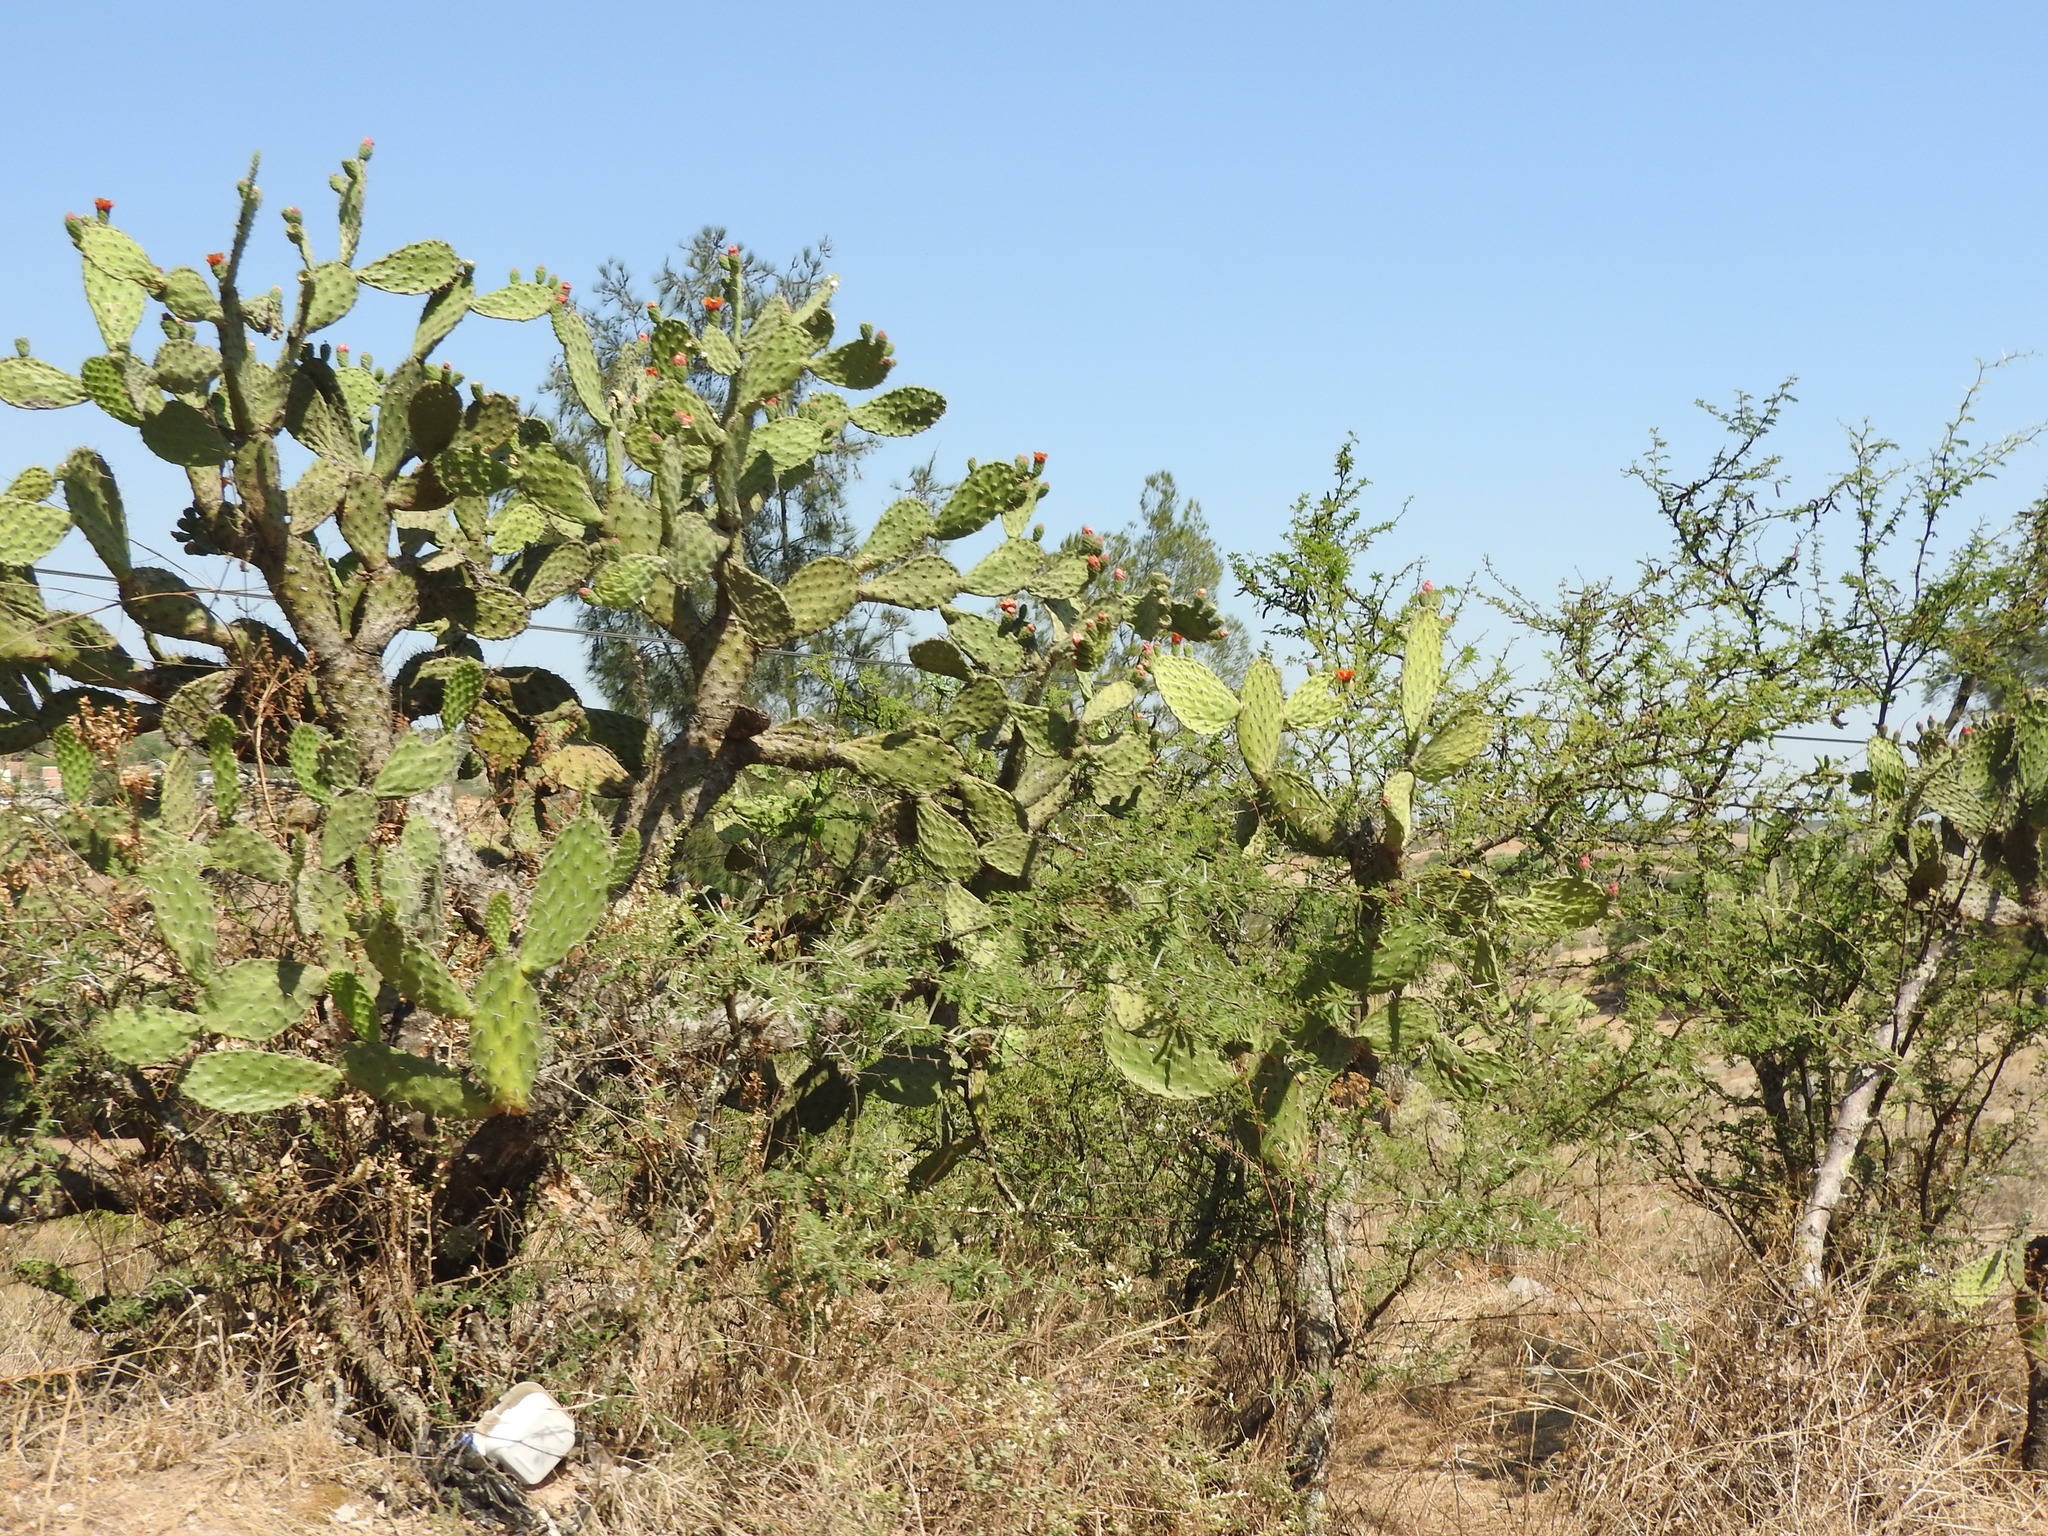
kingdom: Plantae
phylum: Tracheophyta
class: Magnoliopsida
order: Caryophyllales
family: Cactaceae
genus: Opuntia
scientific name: Opuntia
